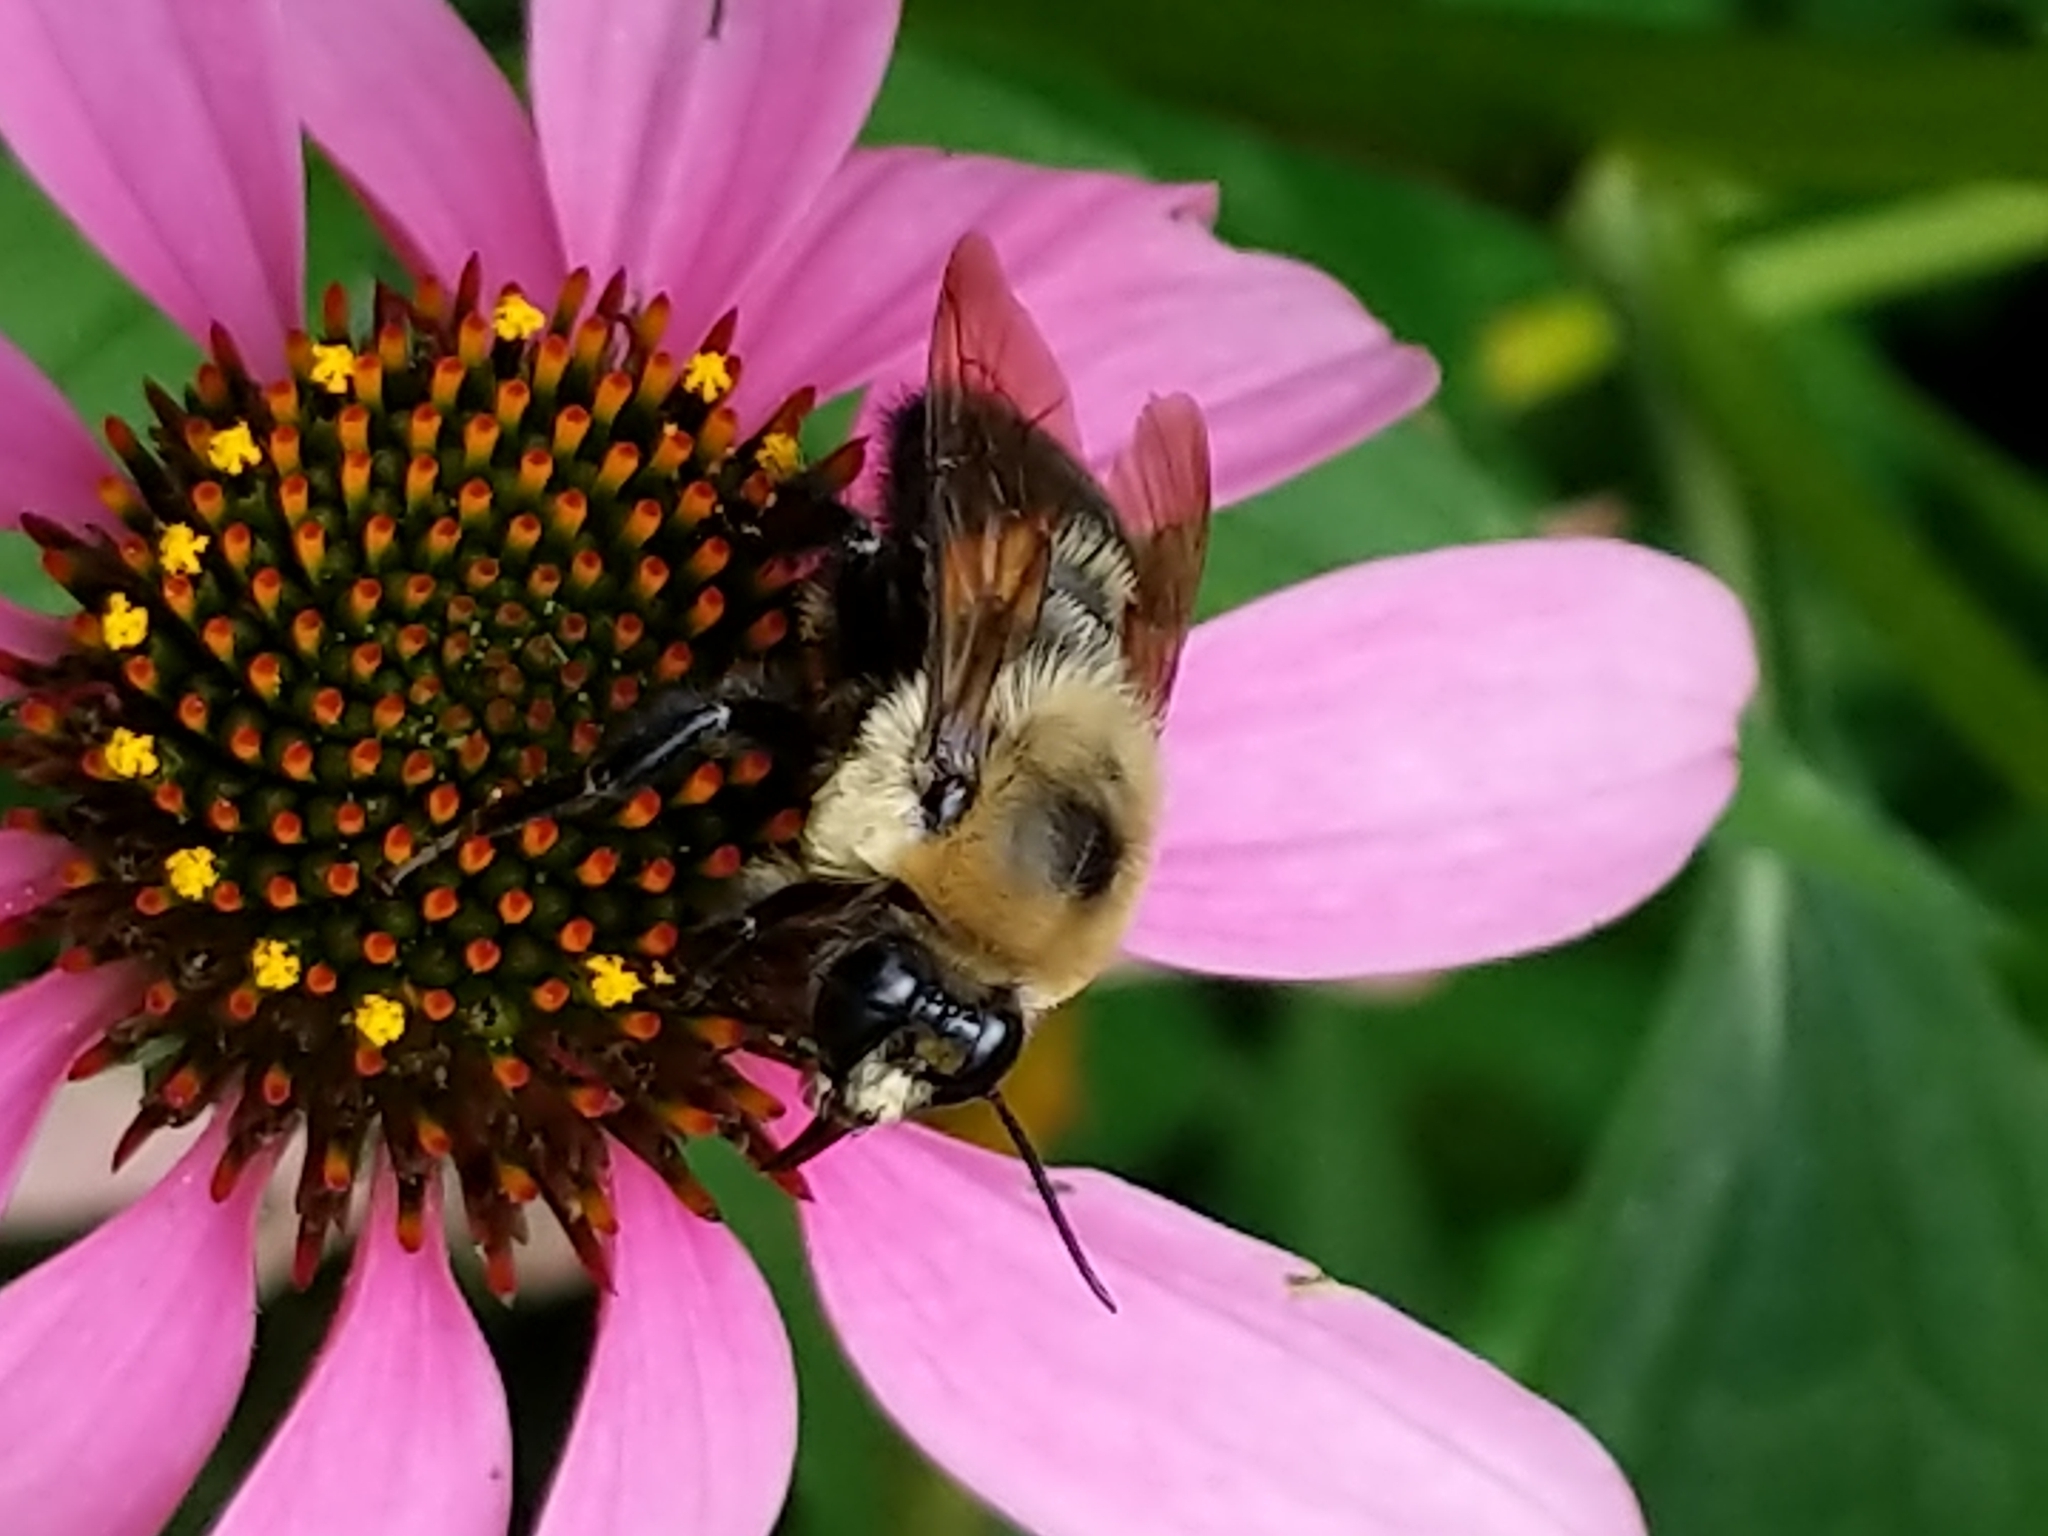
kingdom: Animalia
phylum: Arthropoda
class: Insecta
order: Hymenoptera
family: Apidae
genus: Bombus
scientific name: Bombus griseocollis
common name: Brown-belted bumble bee
